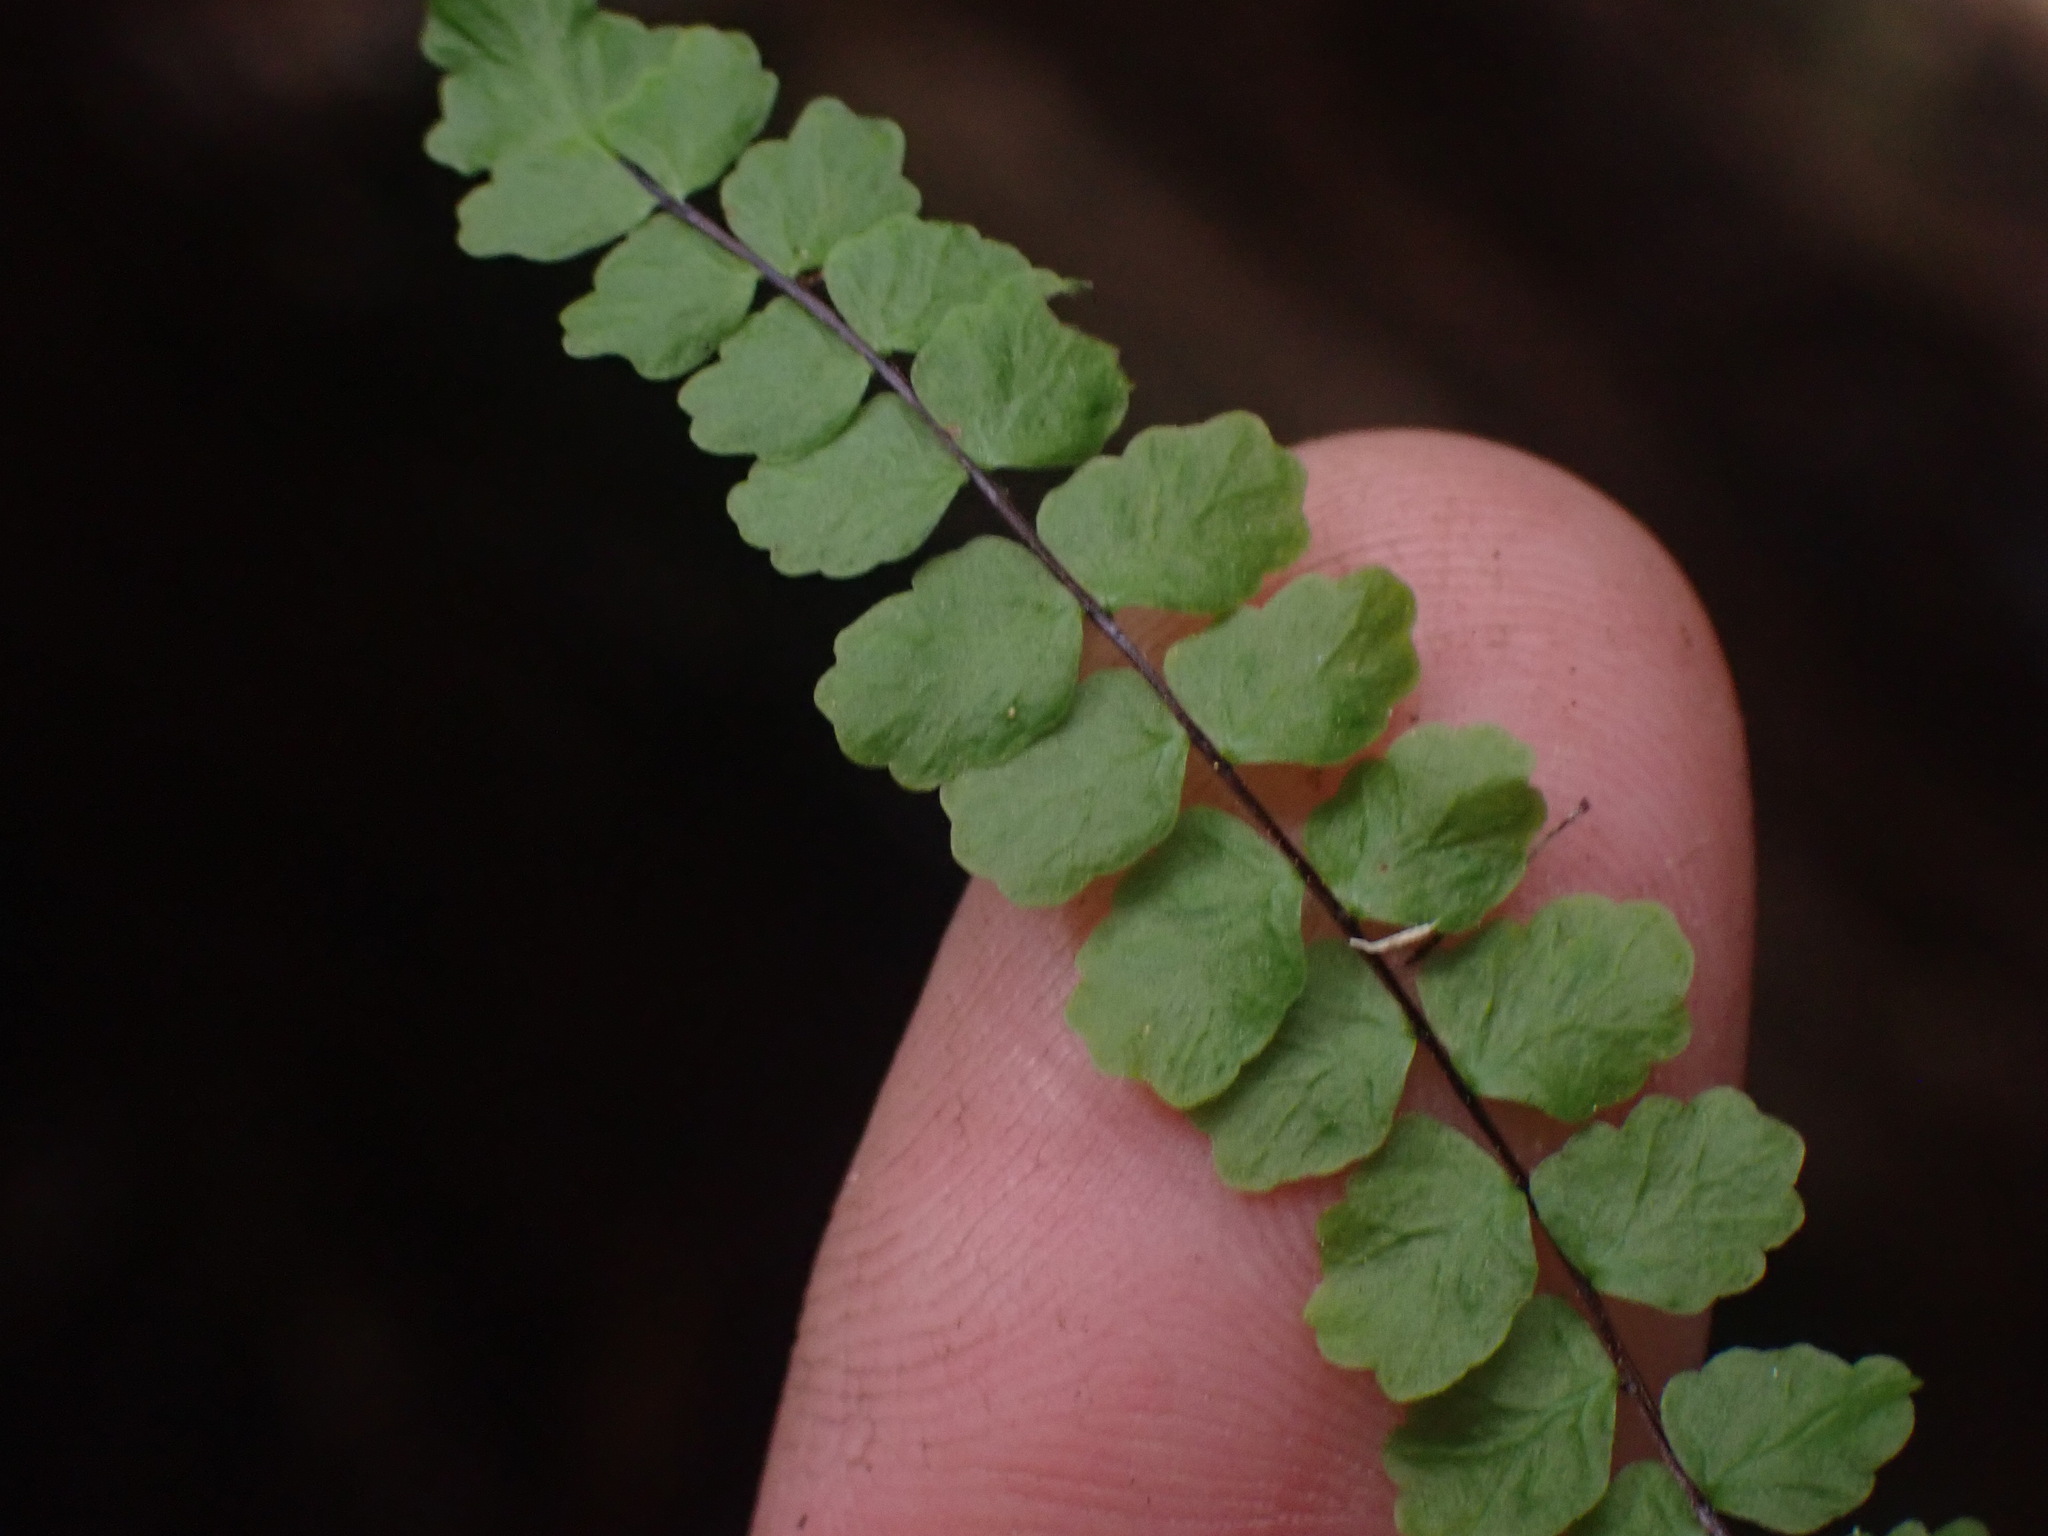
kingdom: Plantae
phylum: Tracheophyta
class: Polypodiopsida
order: Polypodiales
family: Aspleniaceae
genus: Asplenium
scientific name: Asplenium trichomanes
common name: Maidenhair spleenwort
